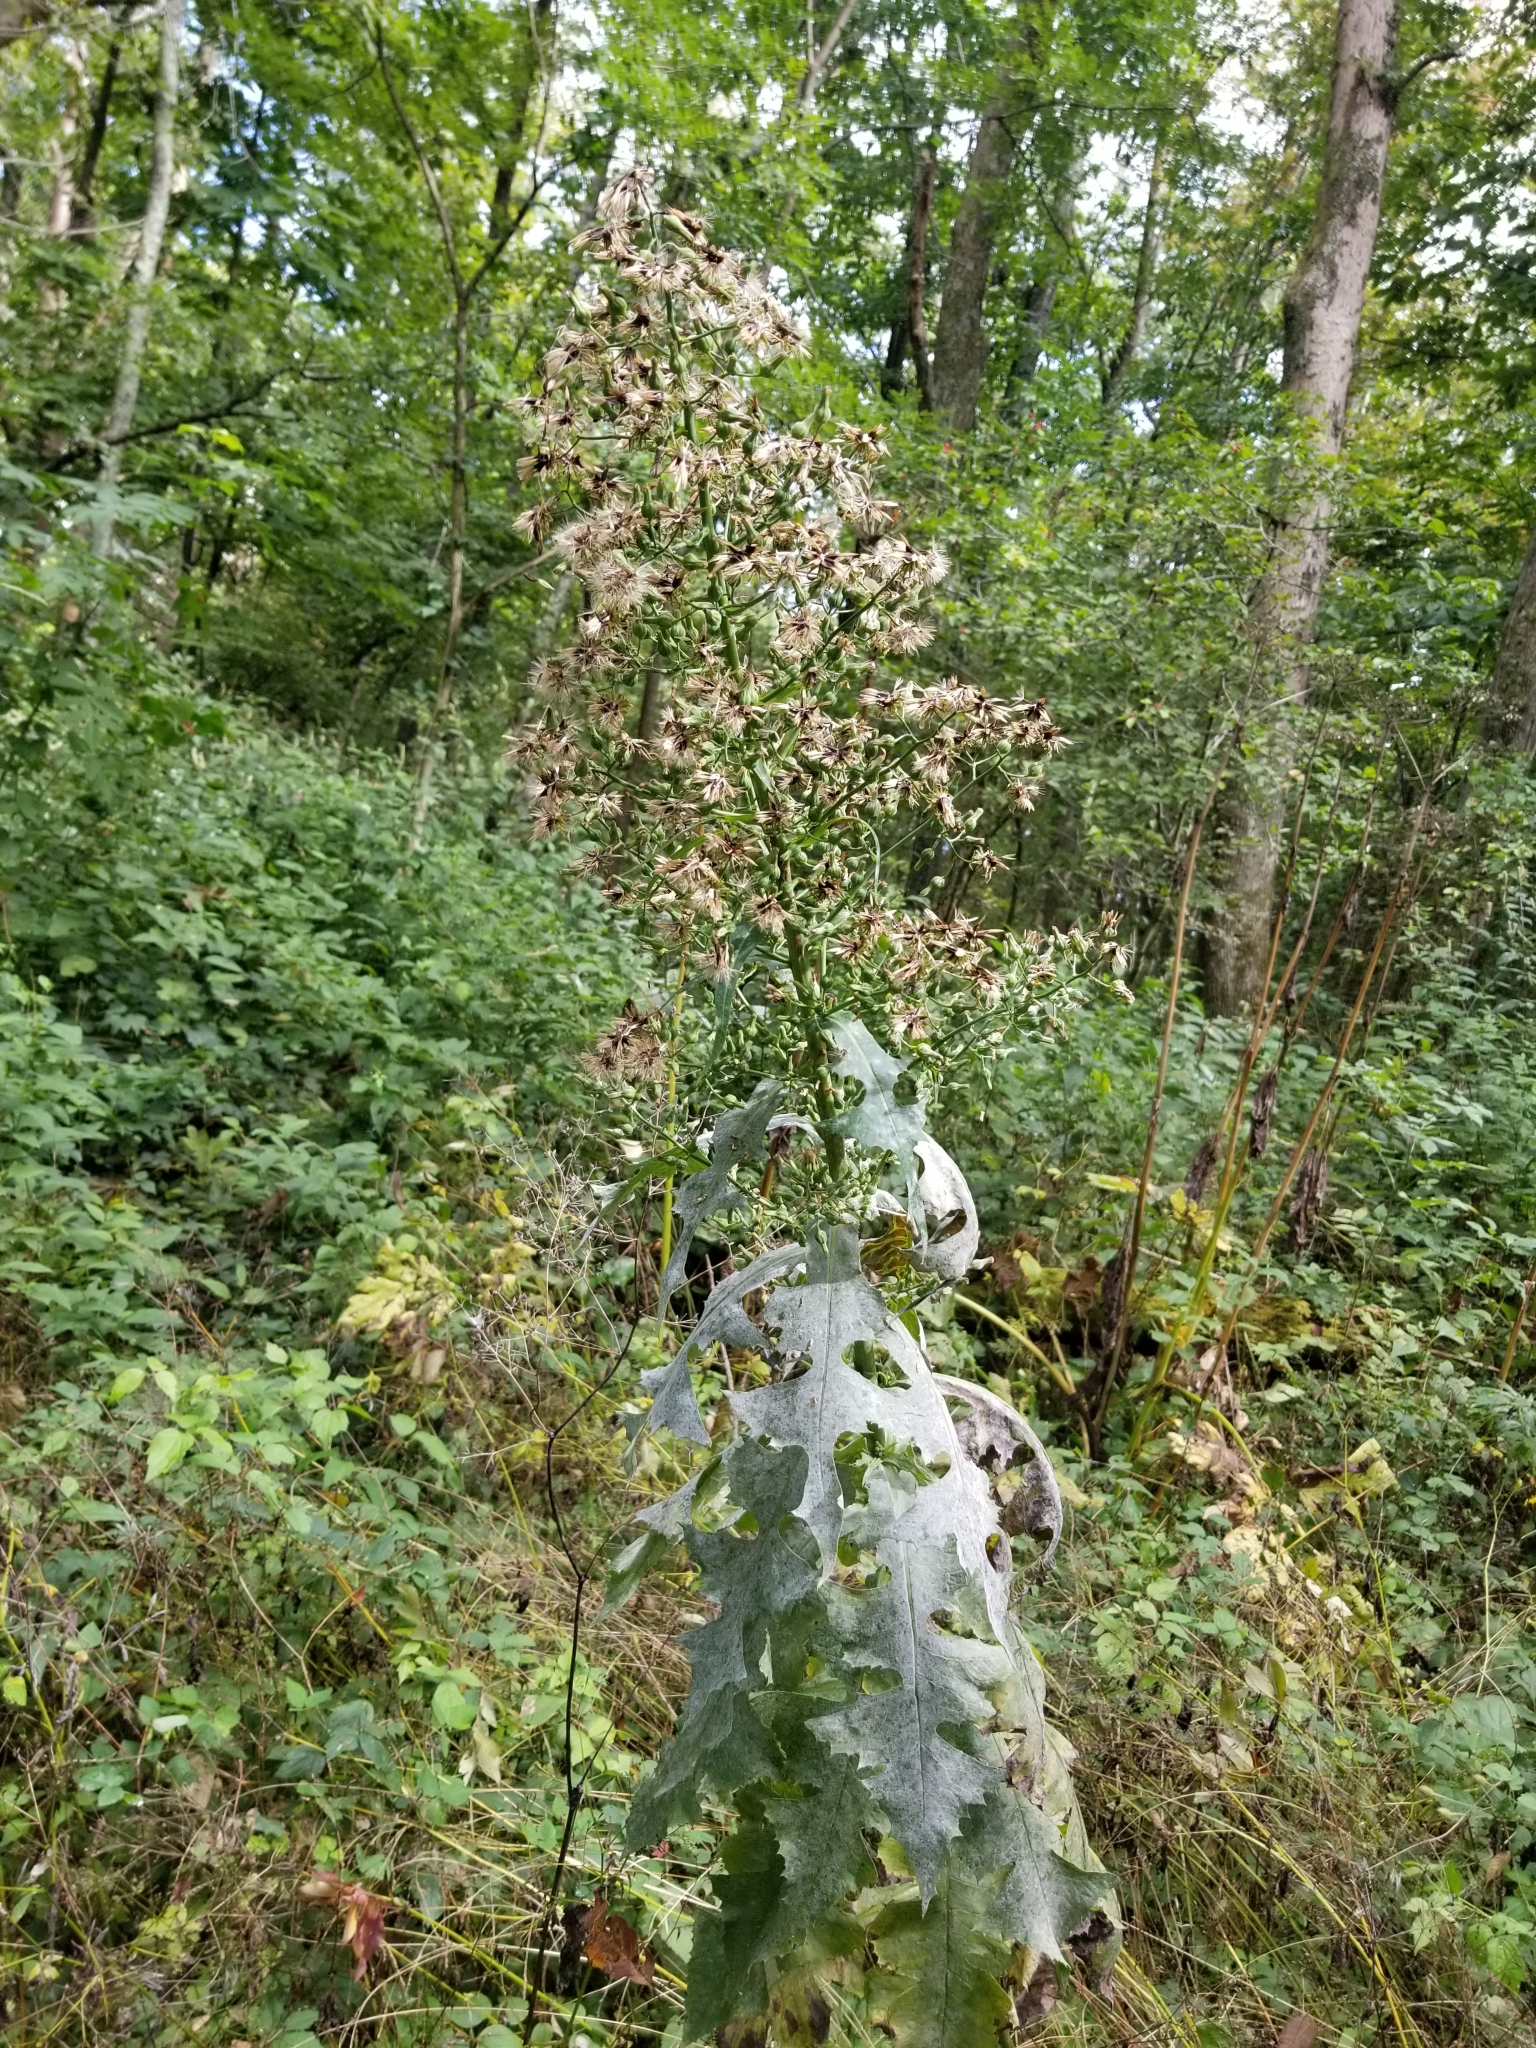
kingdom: Plantae
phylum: Tracheophyta
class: Magnoliopsida
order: Asterales
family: Asteraceae
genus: Lactuca
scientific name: Lactuca biennis
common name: Blue wood lettuce
